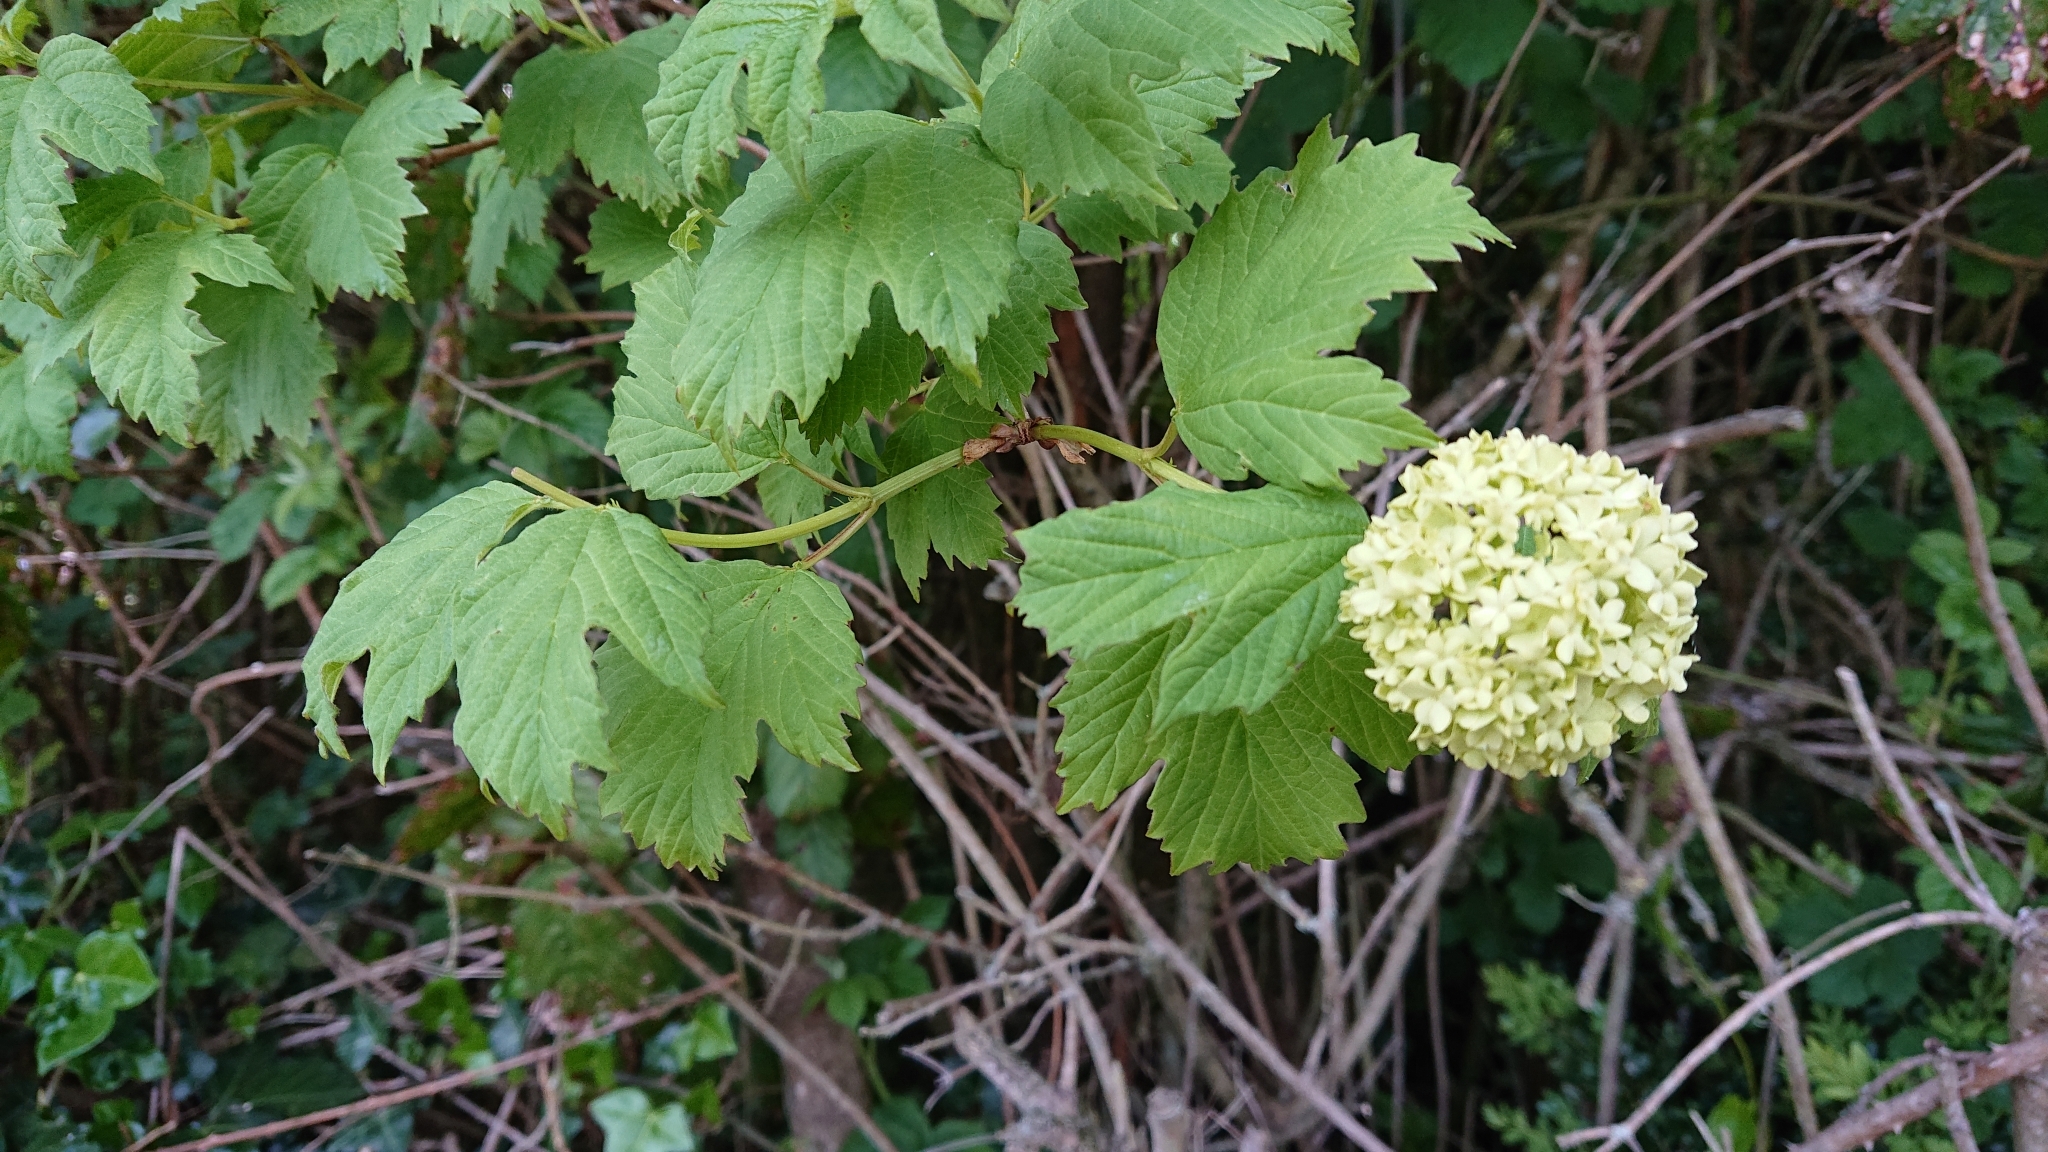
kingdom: Plantae
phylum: Tracheophyta
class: Magnoliopsida
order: Dipsacales
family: Viburnaceae
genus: Viburnum
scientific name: Viburnum opulus
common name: Guelder-rose
